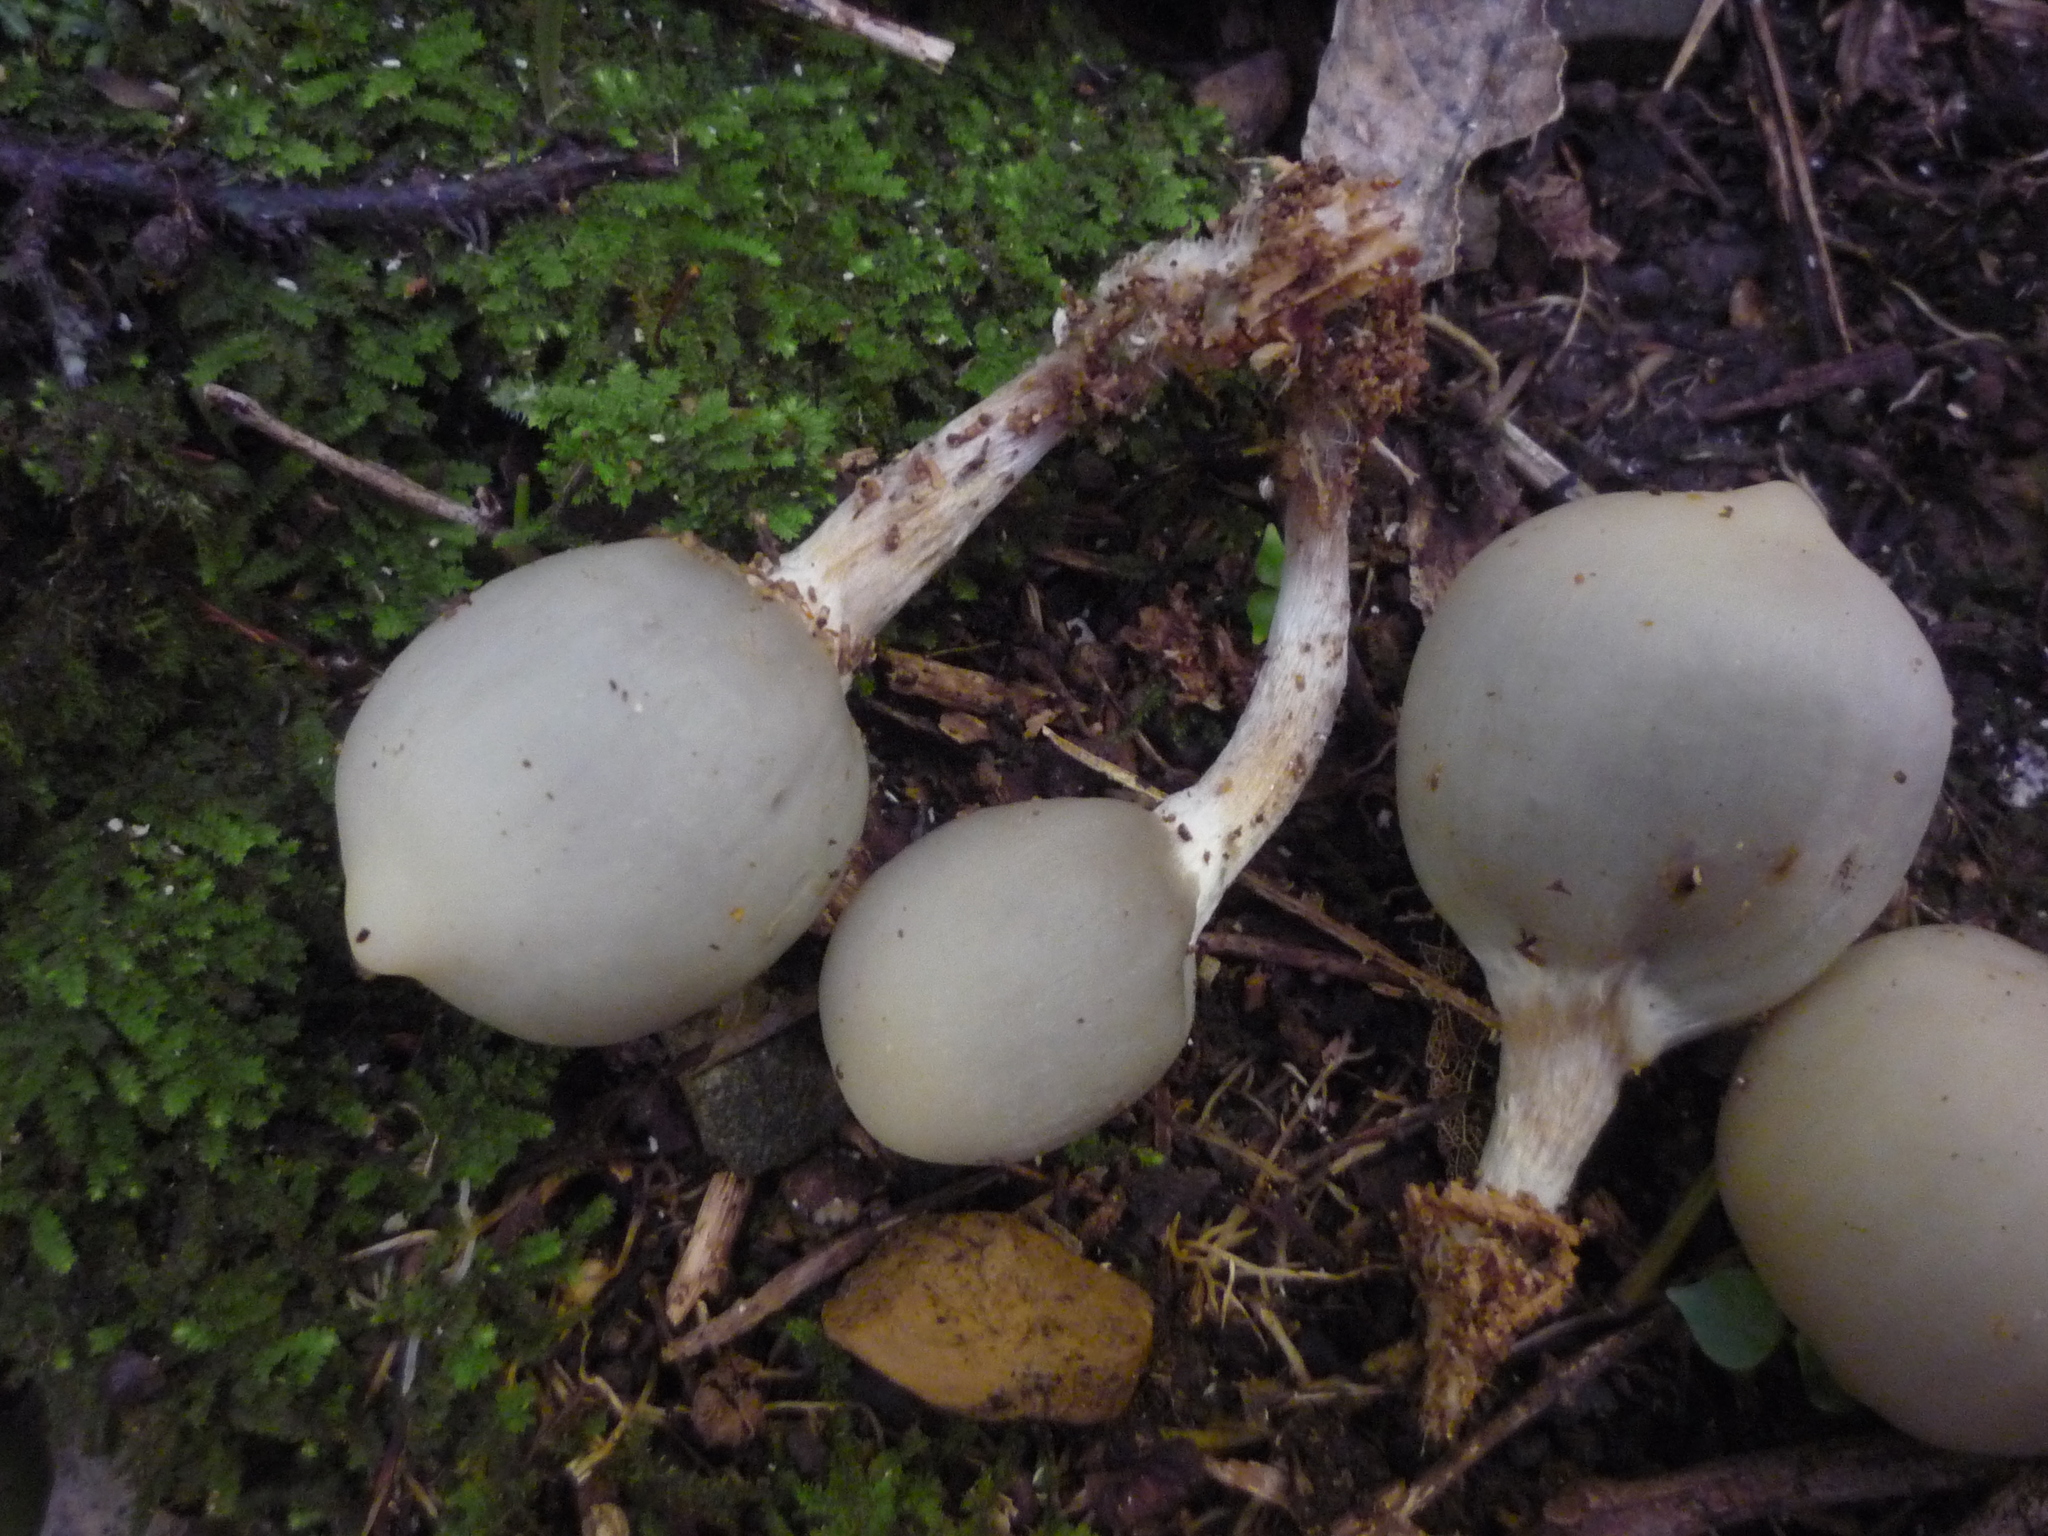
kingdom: Fungi
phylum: Basidiomycota
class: Agaricomycetes
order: Agaricales
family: Hymenogastraceae
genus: Psilocybe
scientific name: Psilocybe weraroa
